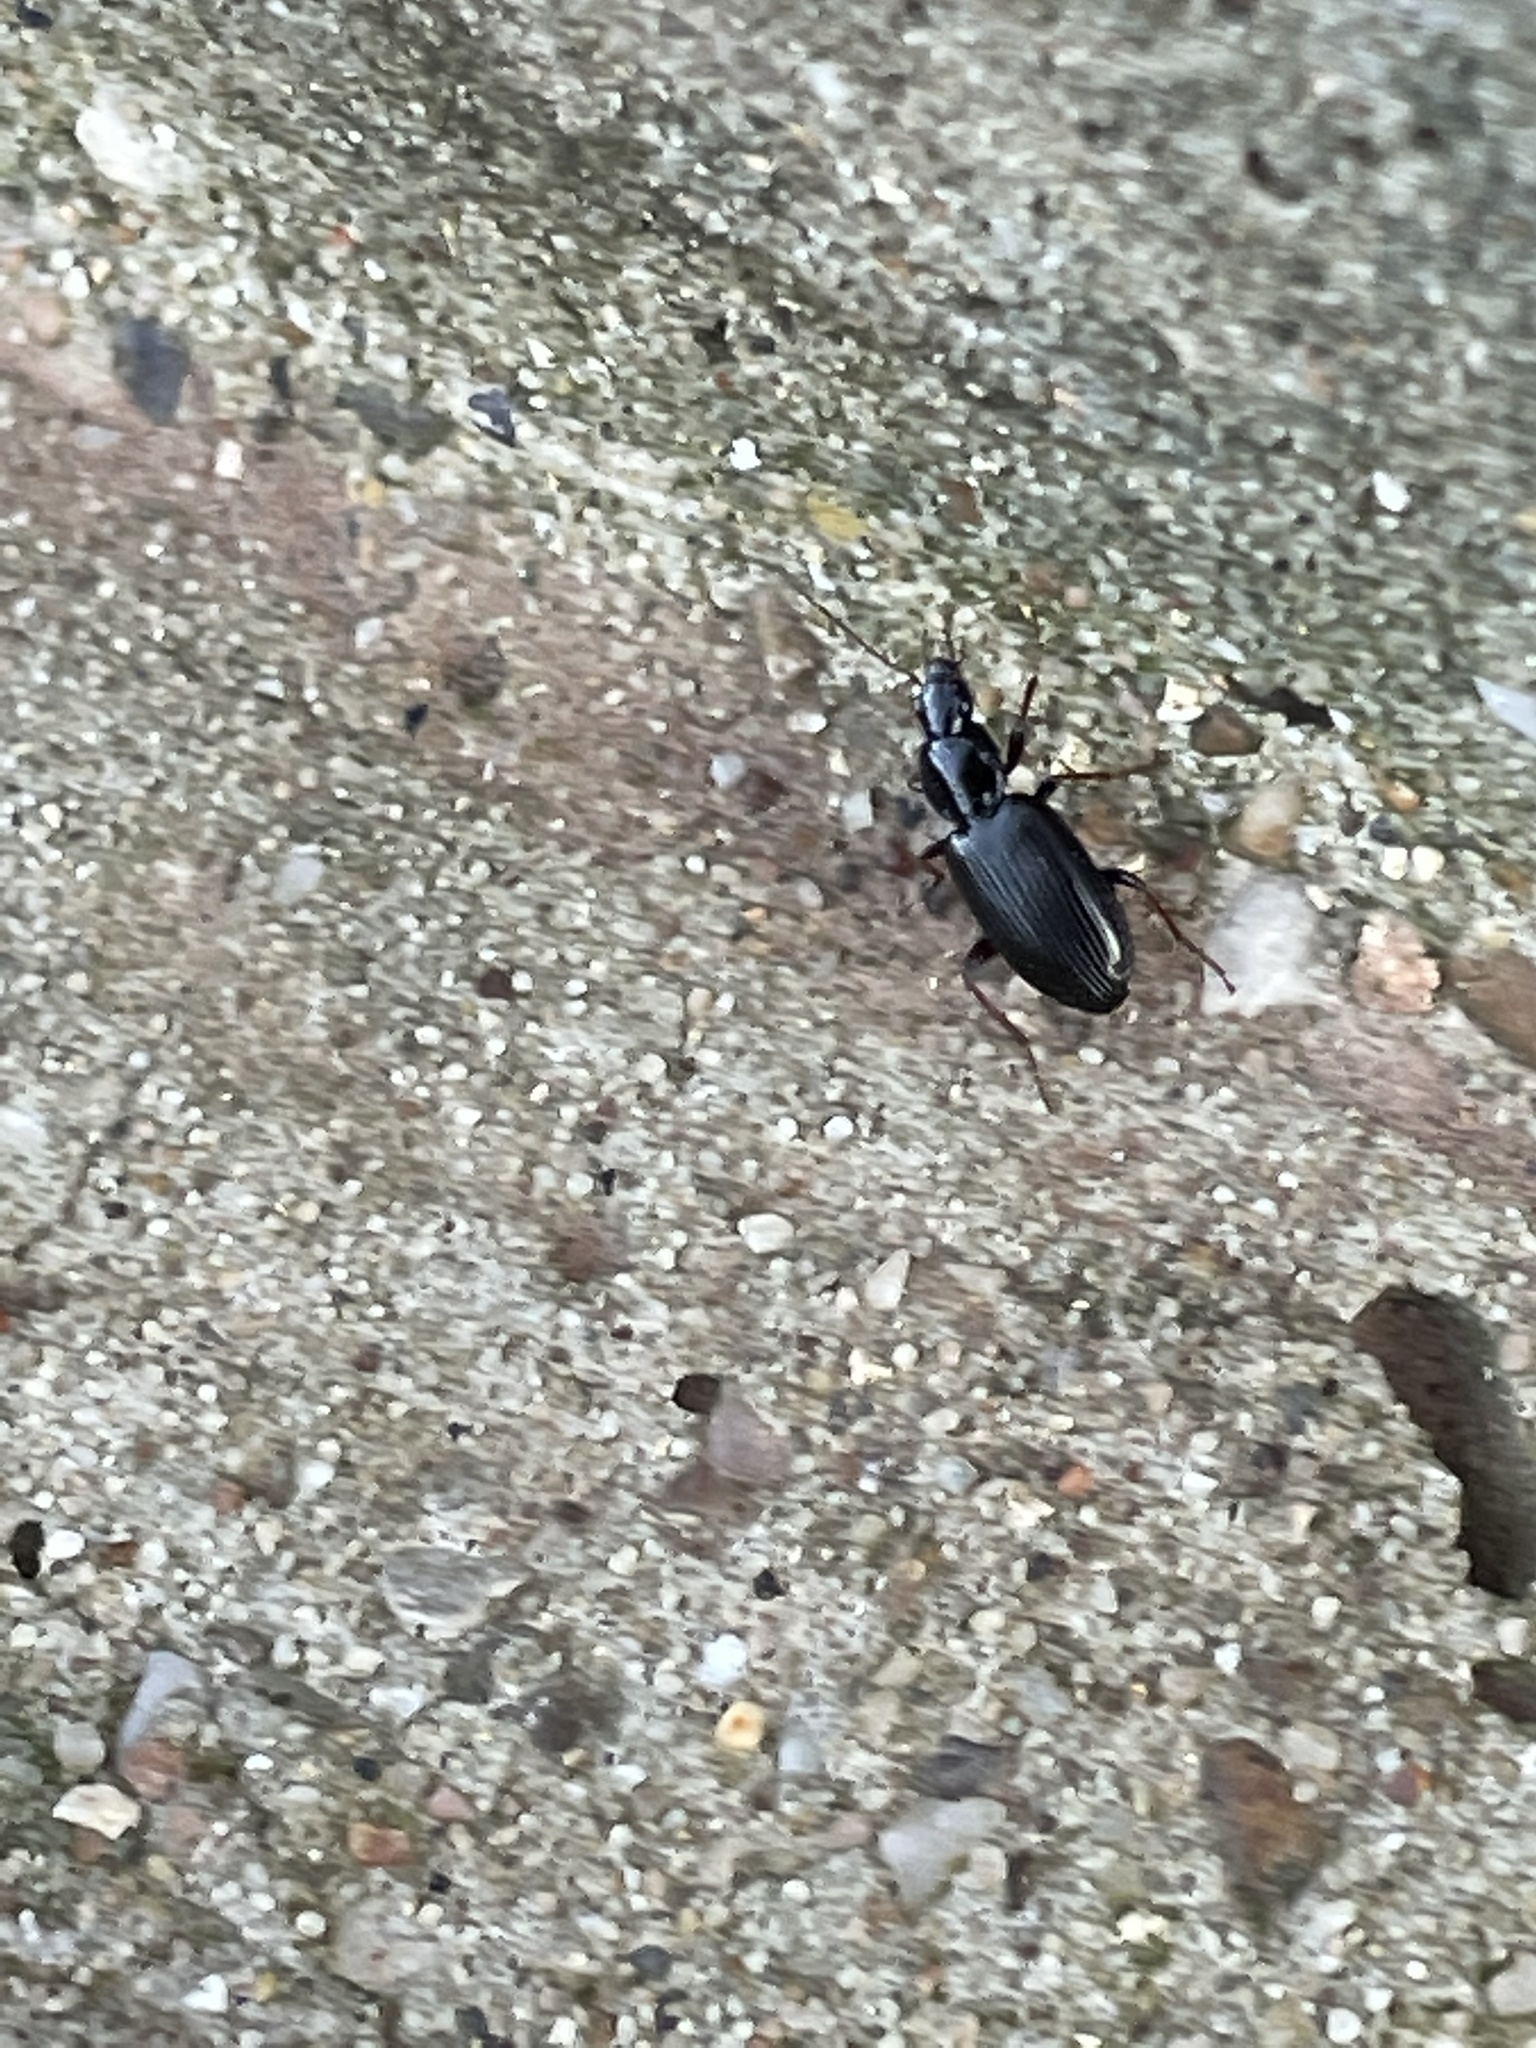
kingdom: Animalia
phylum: Arthropoda
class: Insecta
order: Coleoptera
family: Carabidae
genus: Agonum
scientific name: Agonum punctiforme
